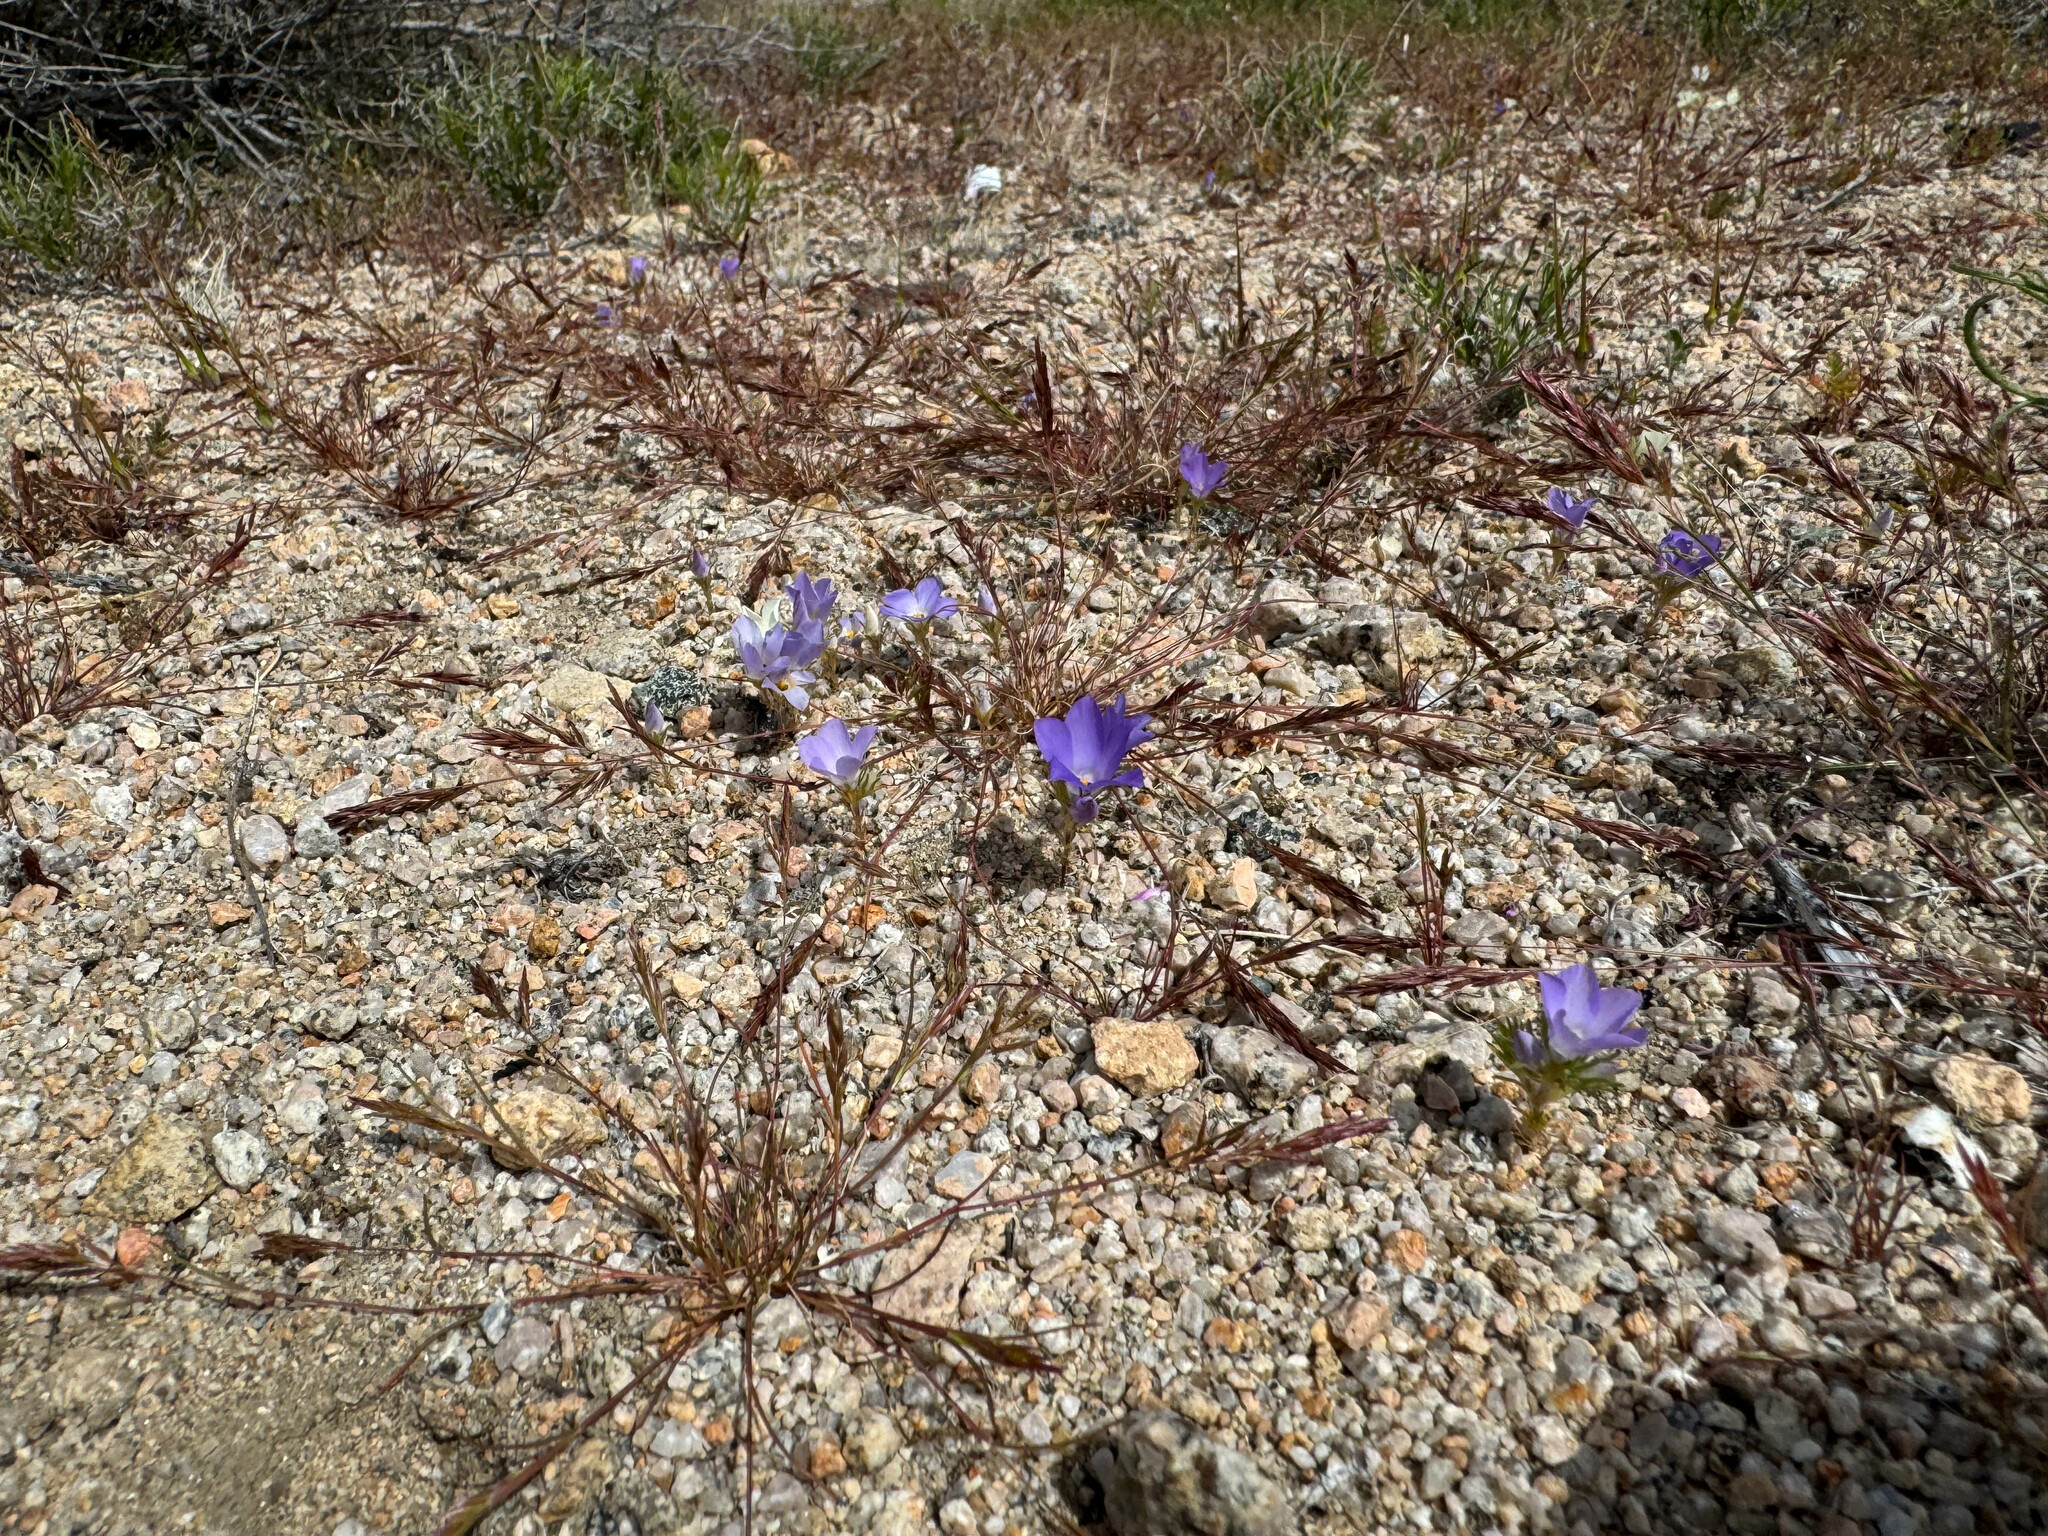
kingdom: Plantae
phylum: Tracheophyta
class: Magnoliopsida
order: Ericales
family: Polemoniaceae
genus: Linanthus
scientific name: Linanthus parryae
